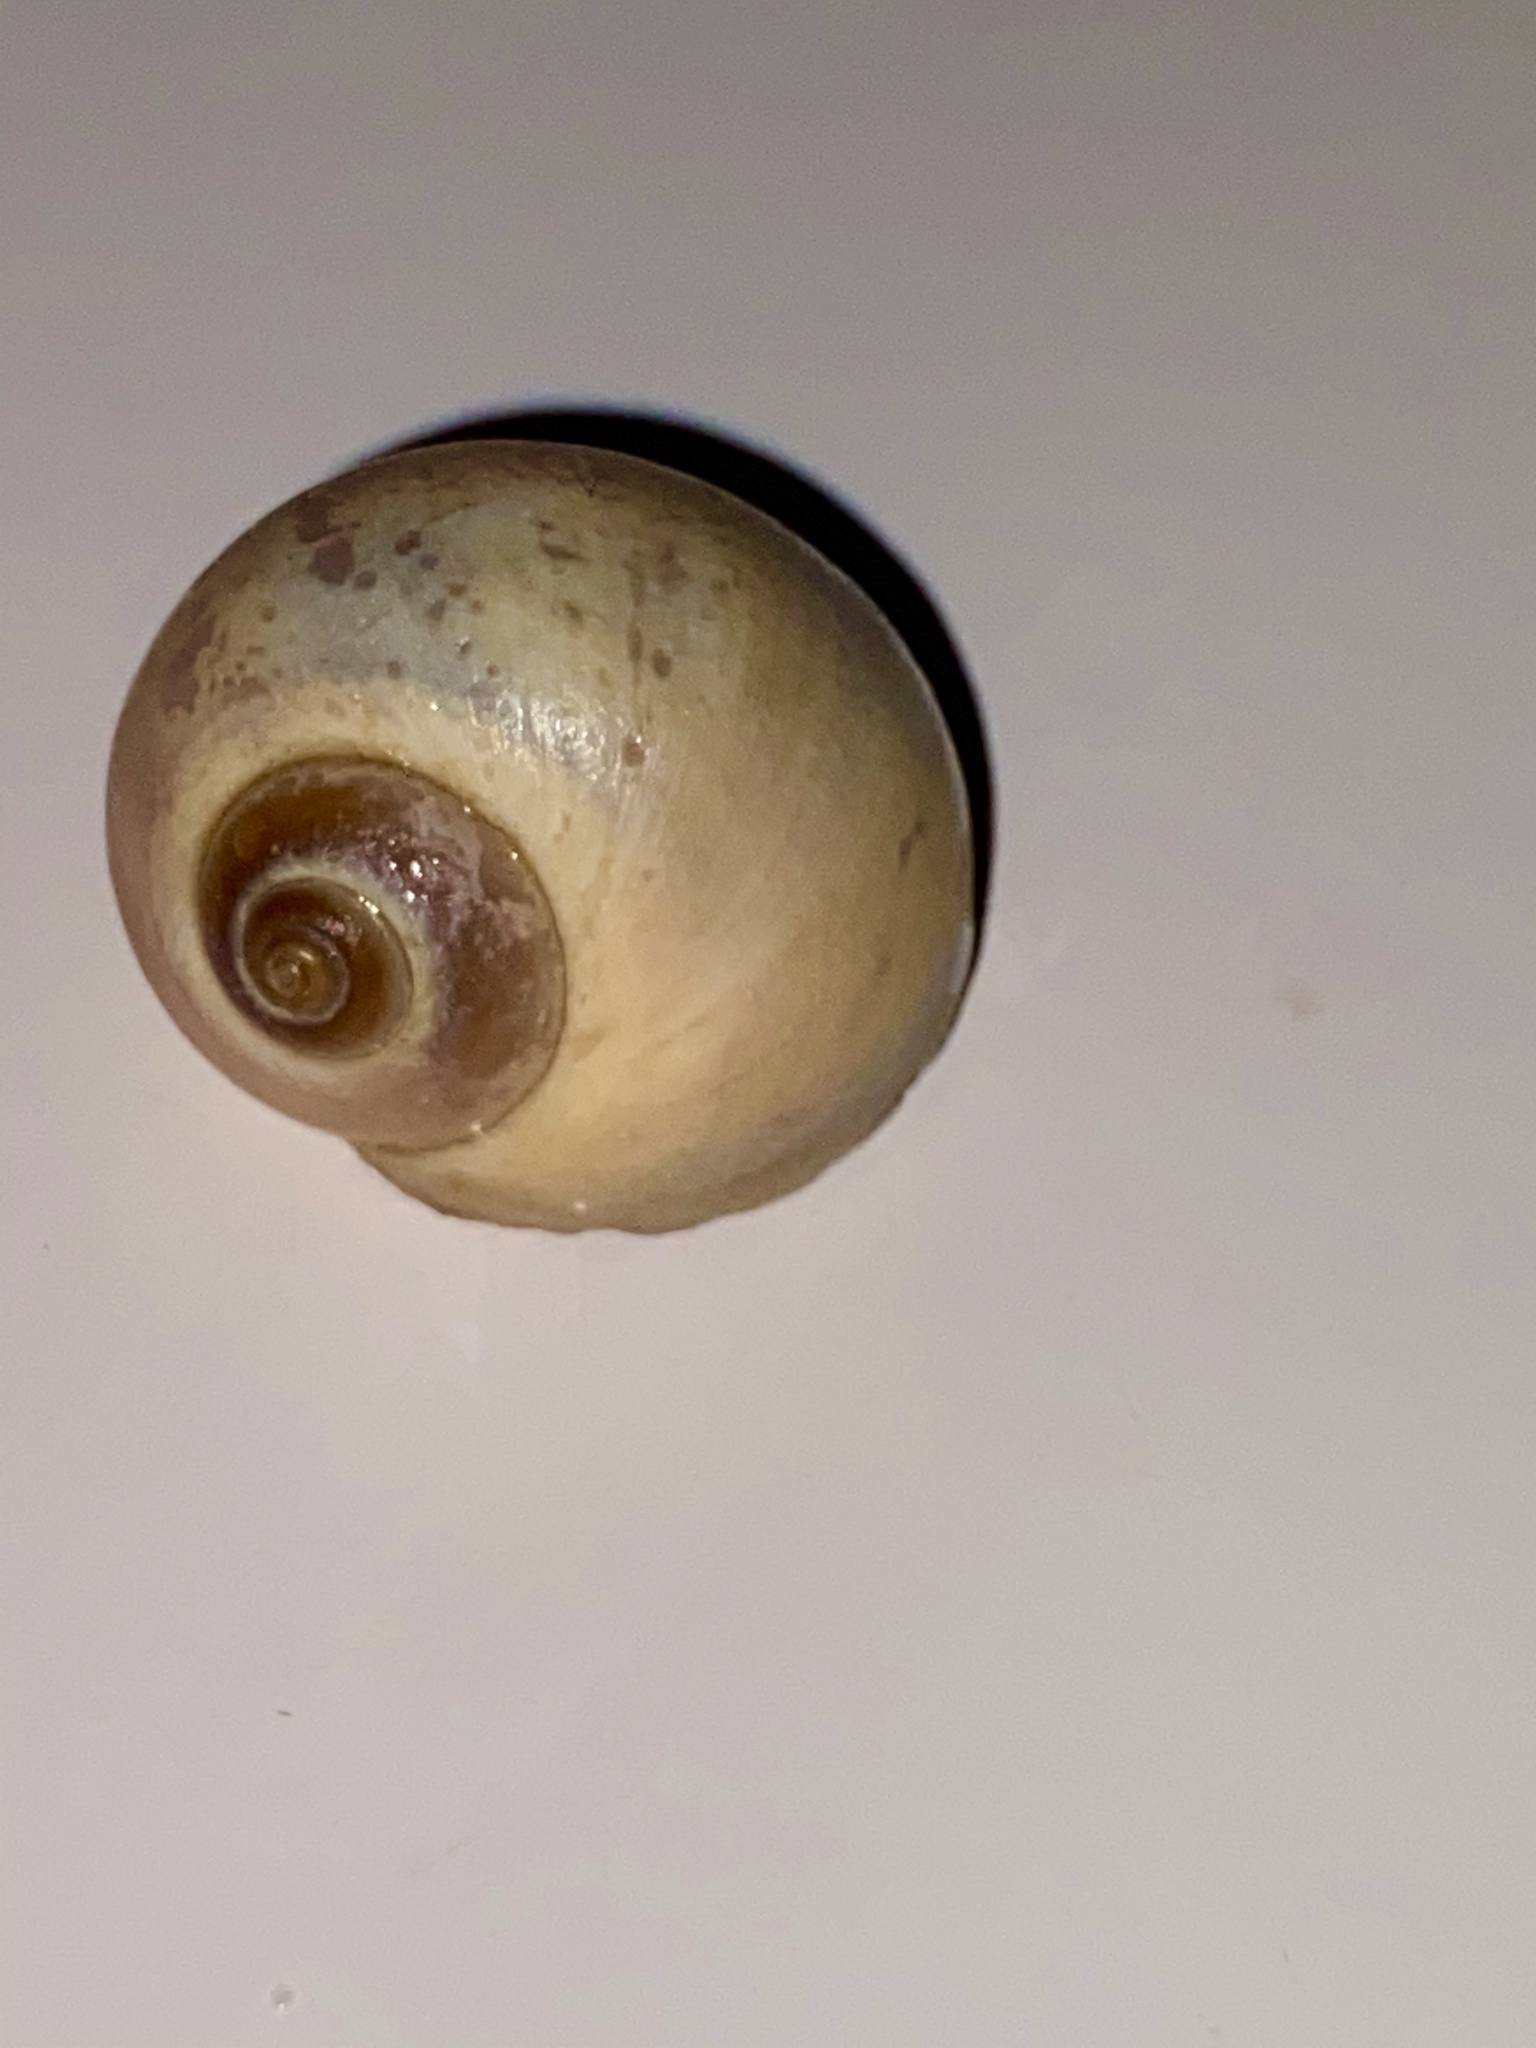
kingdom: Animalia
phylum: Mollusca
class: Gastropoda
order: Littorinimorpha
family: Naticidae
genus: Euspira
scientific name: Euspira heros
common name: Common northern moonsnail
